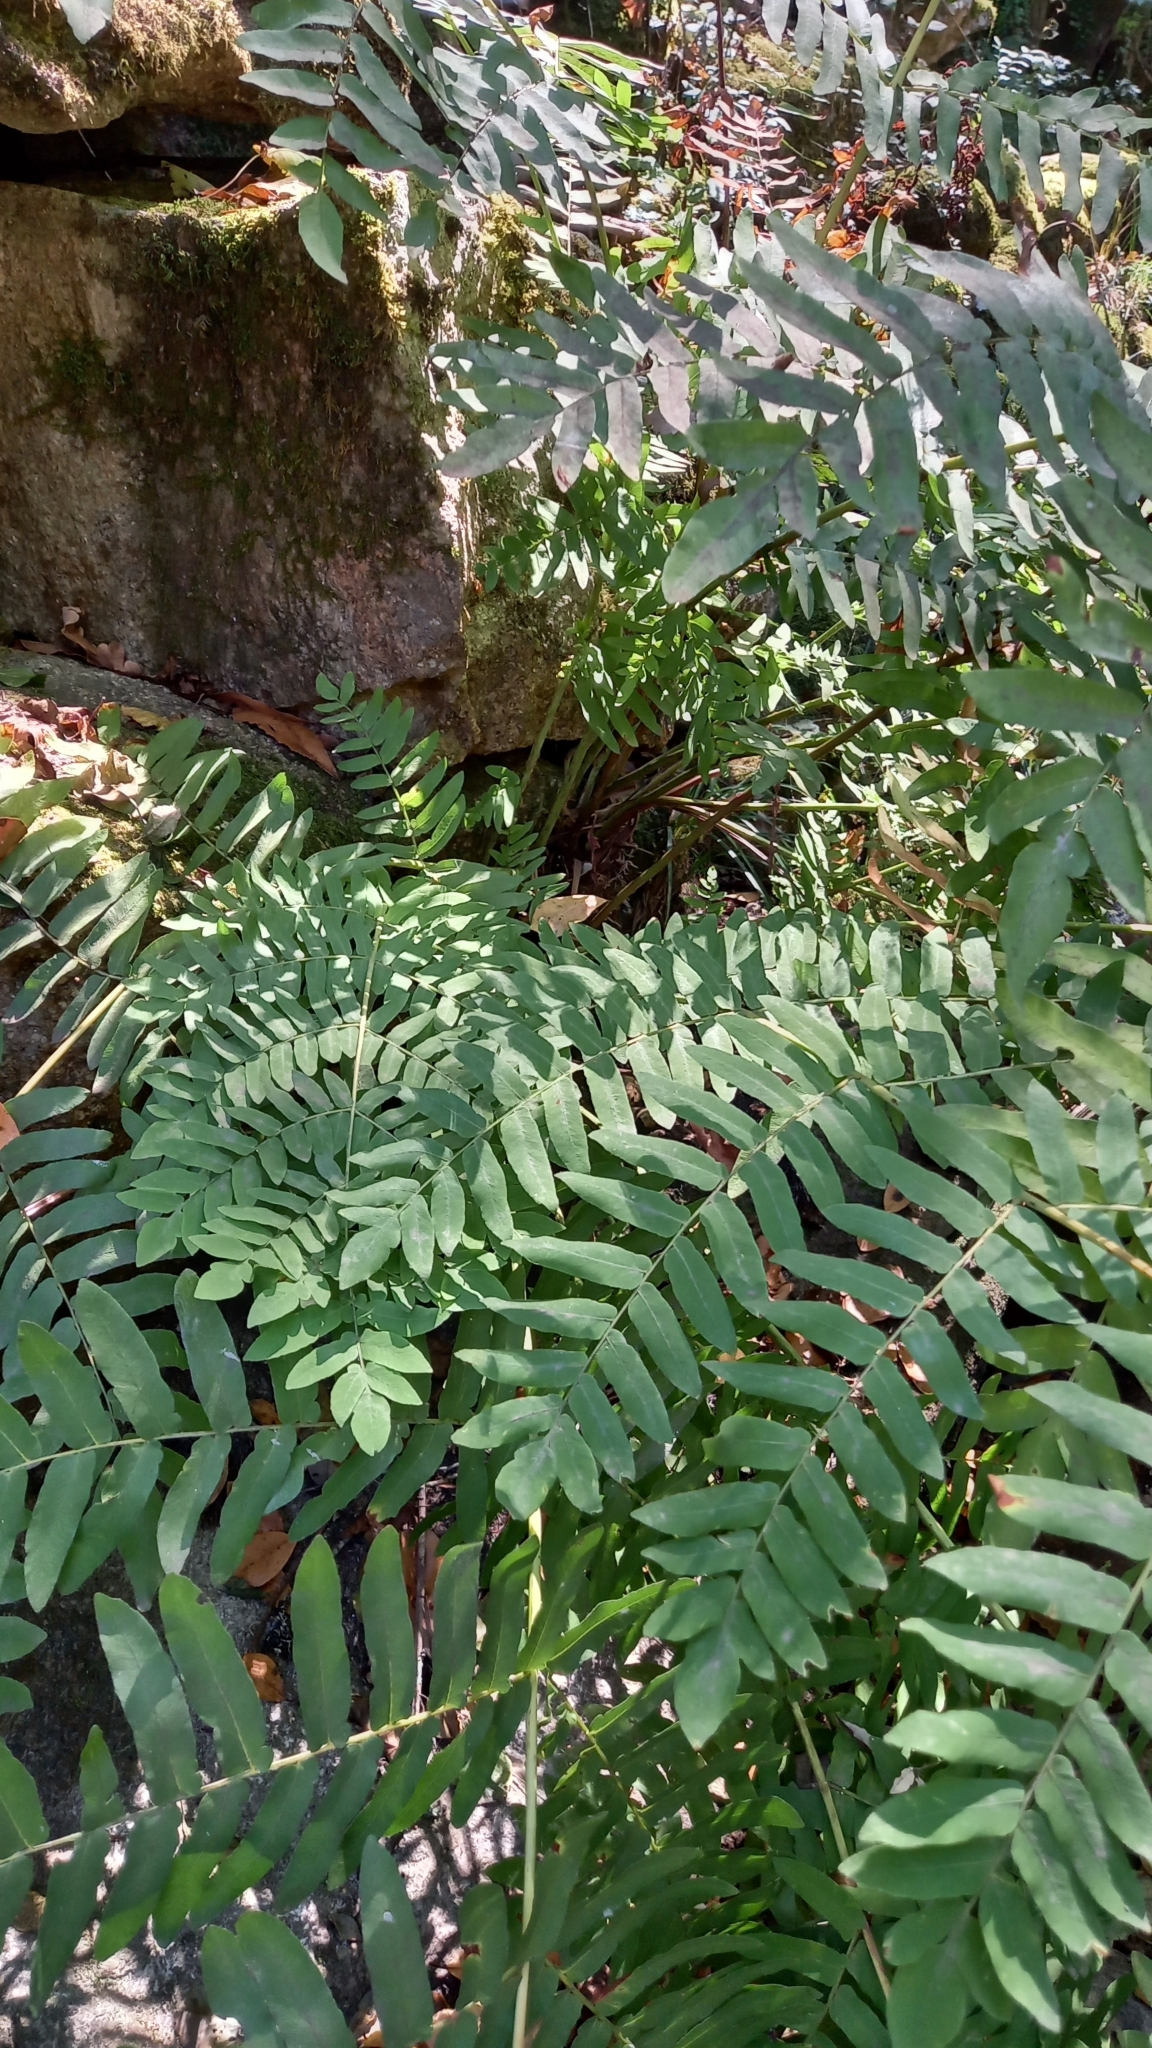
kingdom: Plantae
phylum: Tracheophyta
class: Polypodiopsida
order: Osmundales
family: Osmundaceae
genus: Osmunda
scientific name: Osmunda regalis
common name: Royal fern
